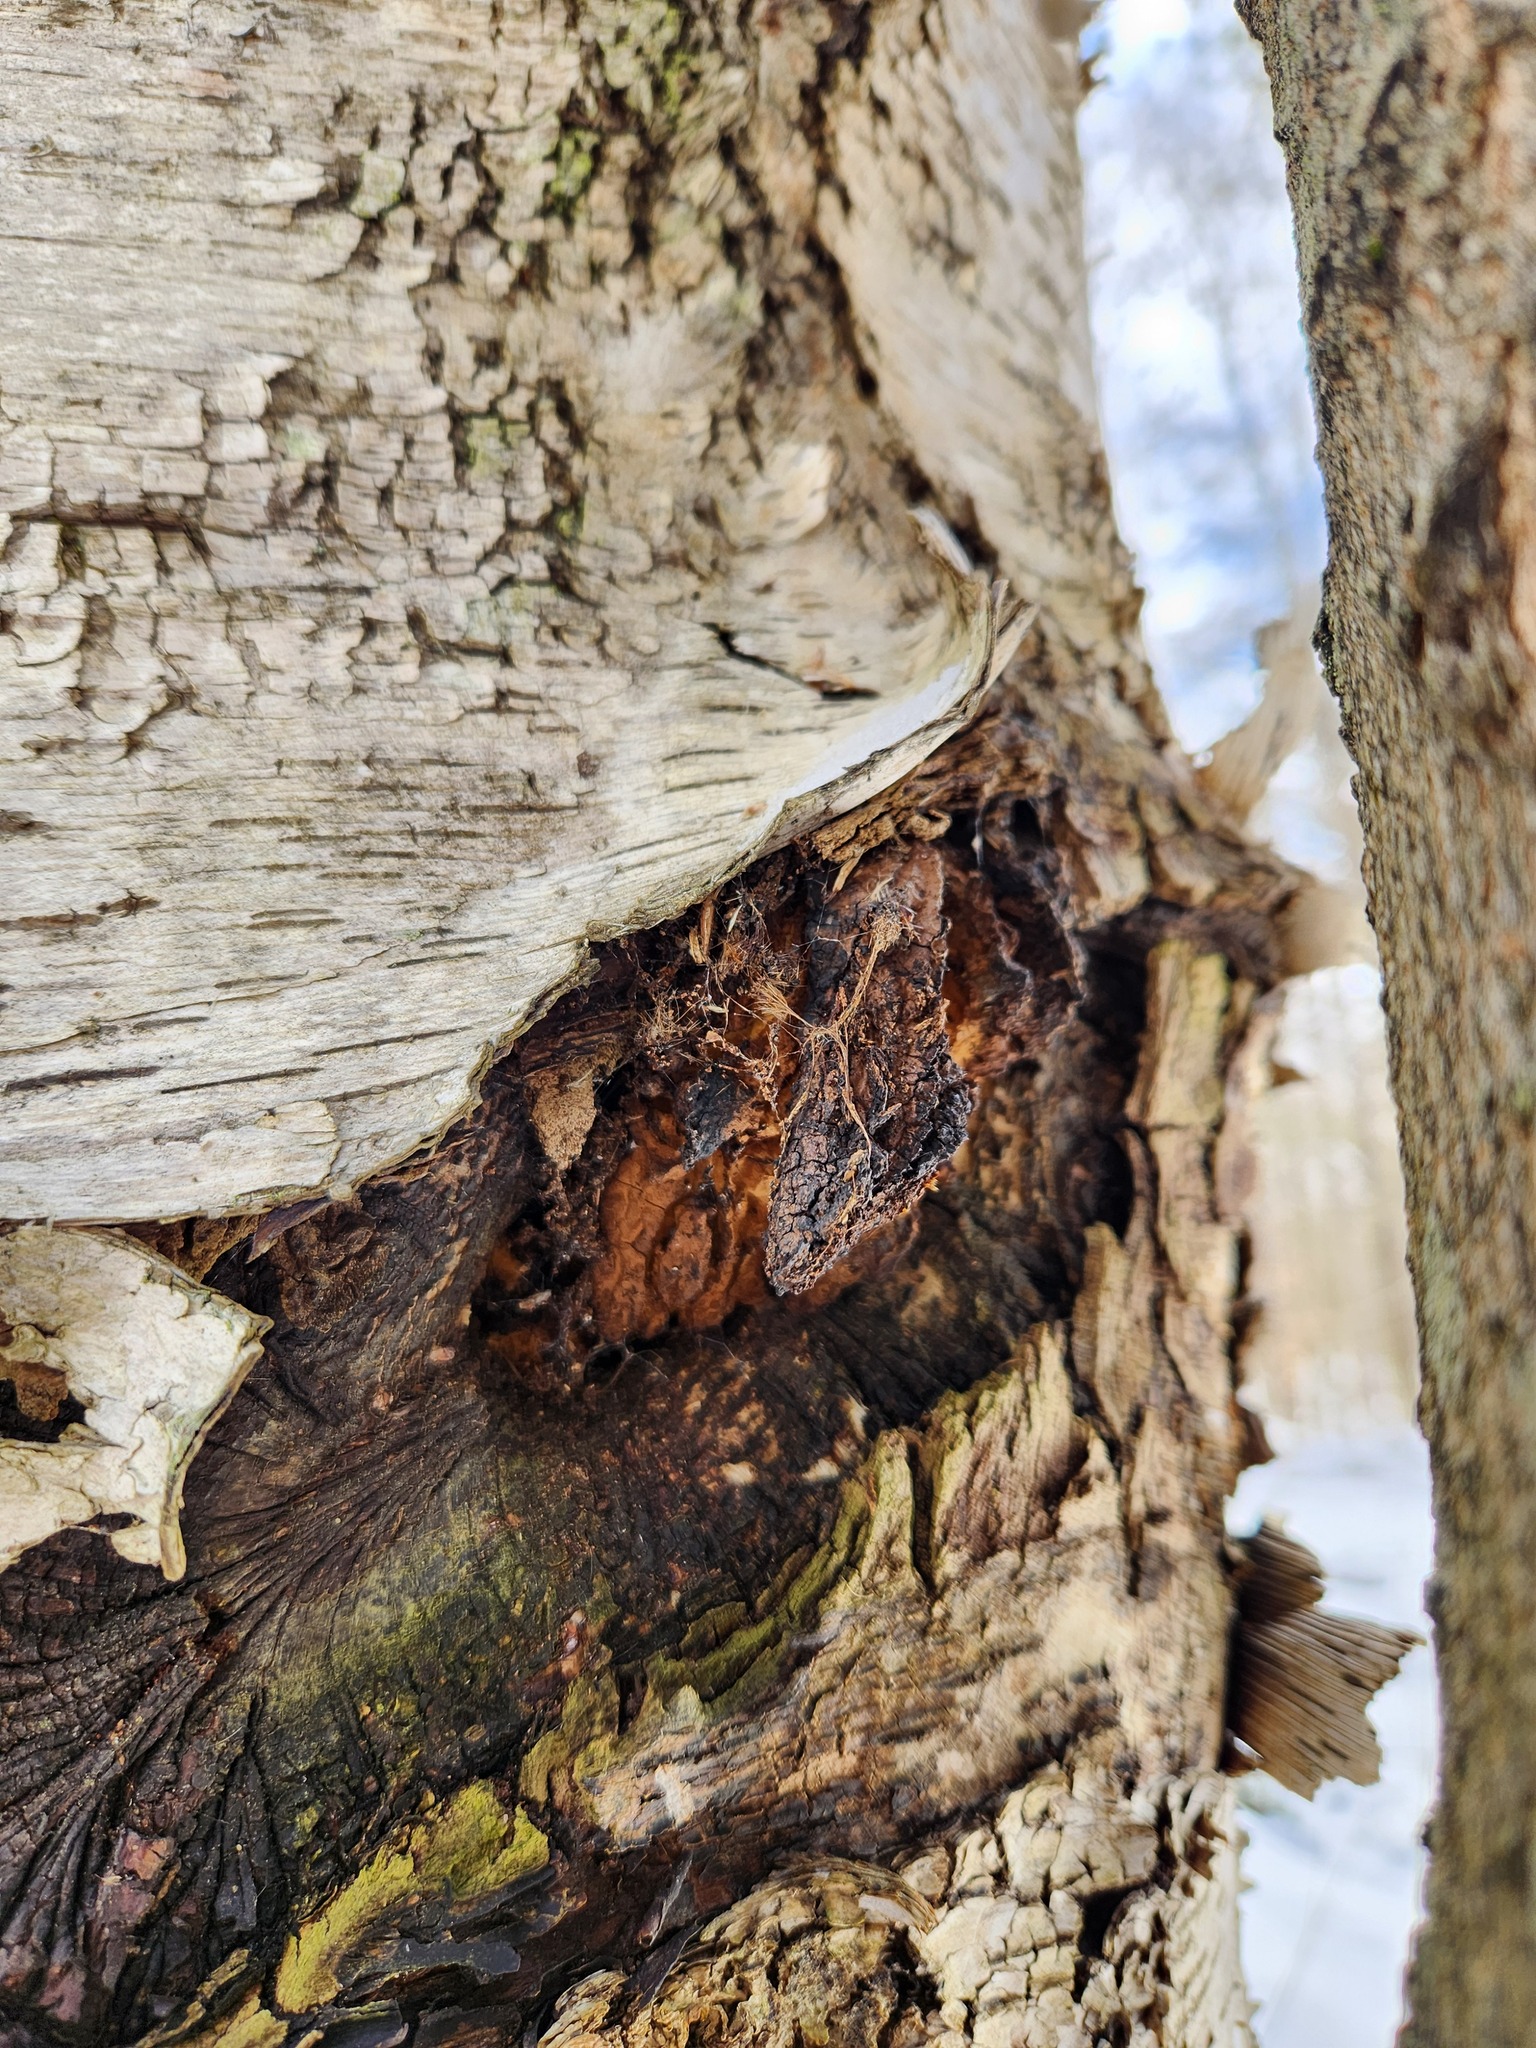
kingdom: Fungi
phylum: Basidiomycota
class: Agaricomycetes
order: Hymenochaetales
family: Hymenochaetaceae
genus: Inonotus
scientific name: Inonotus obliquus
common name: Chaga
